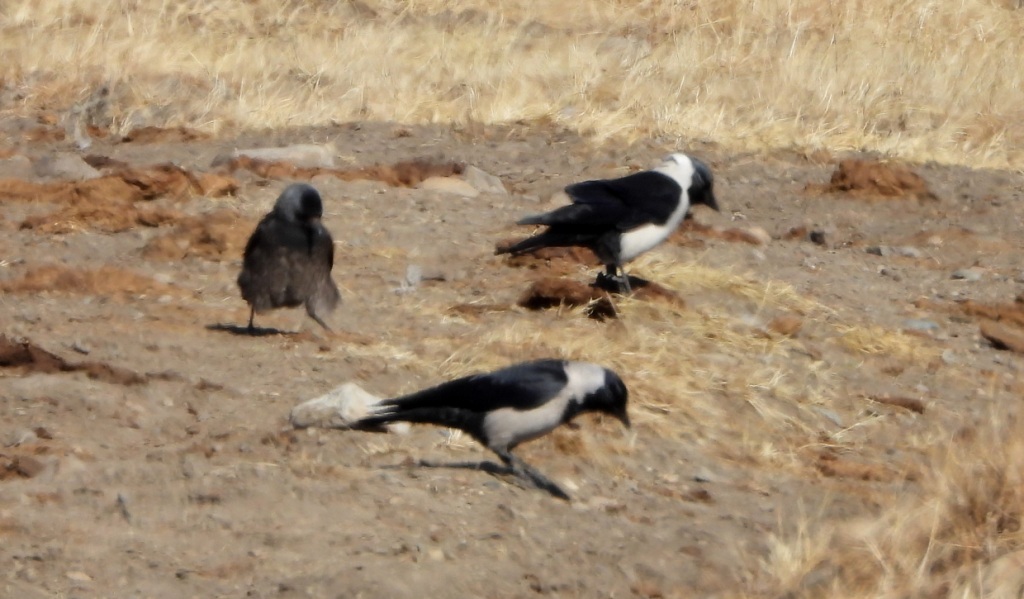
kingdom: Animalia
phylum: Chordata
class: Aves
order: Passeriformes
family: Corvidae
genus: Coloeus
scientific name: Coloeus dauuricus
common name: Daurian jackdaw
